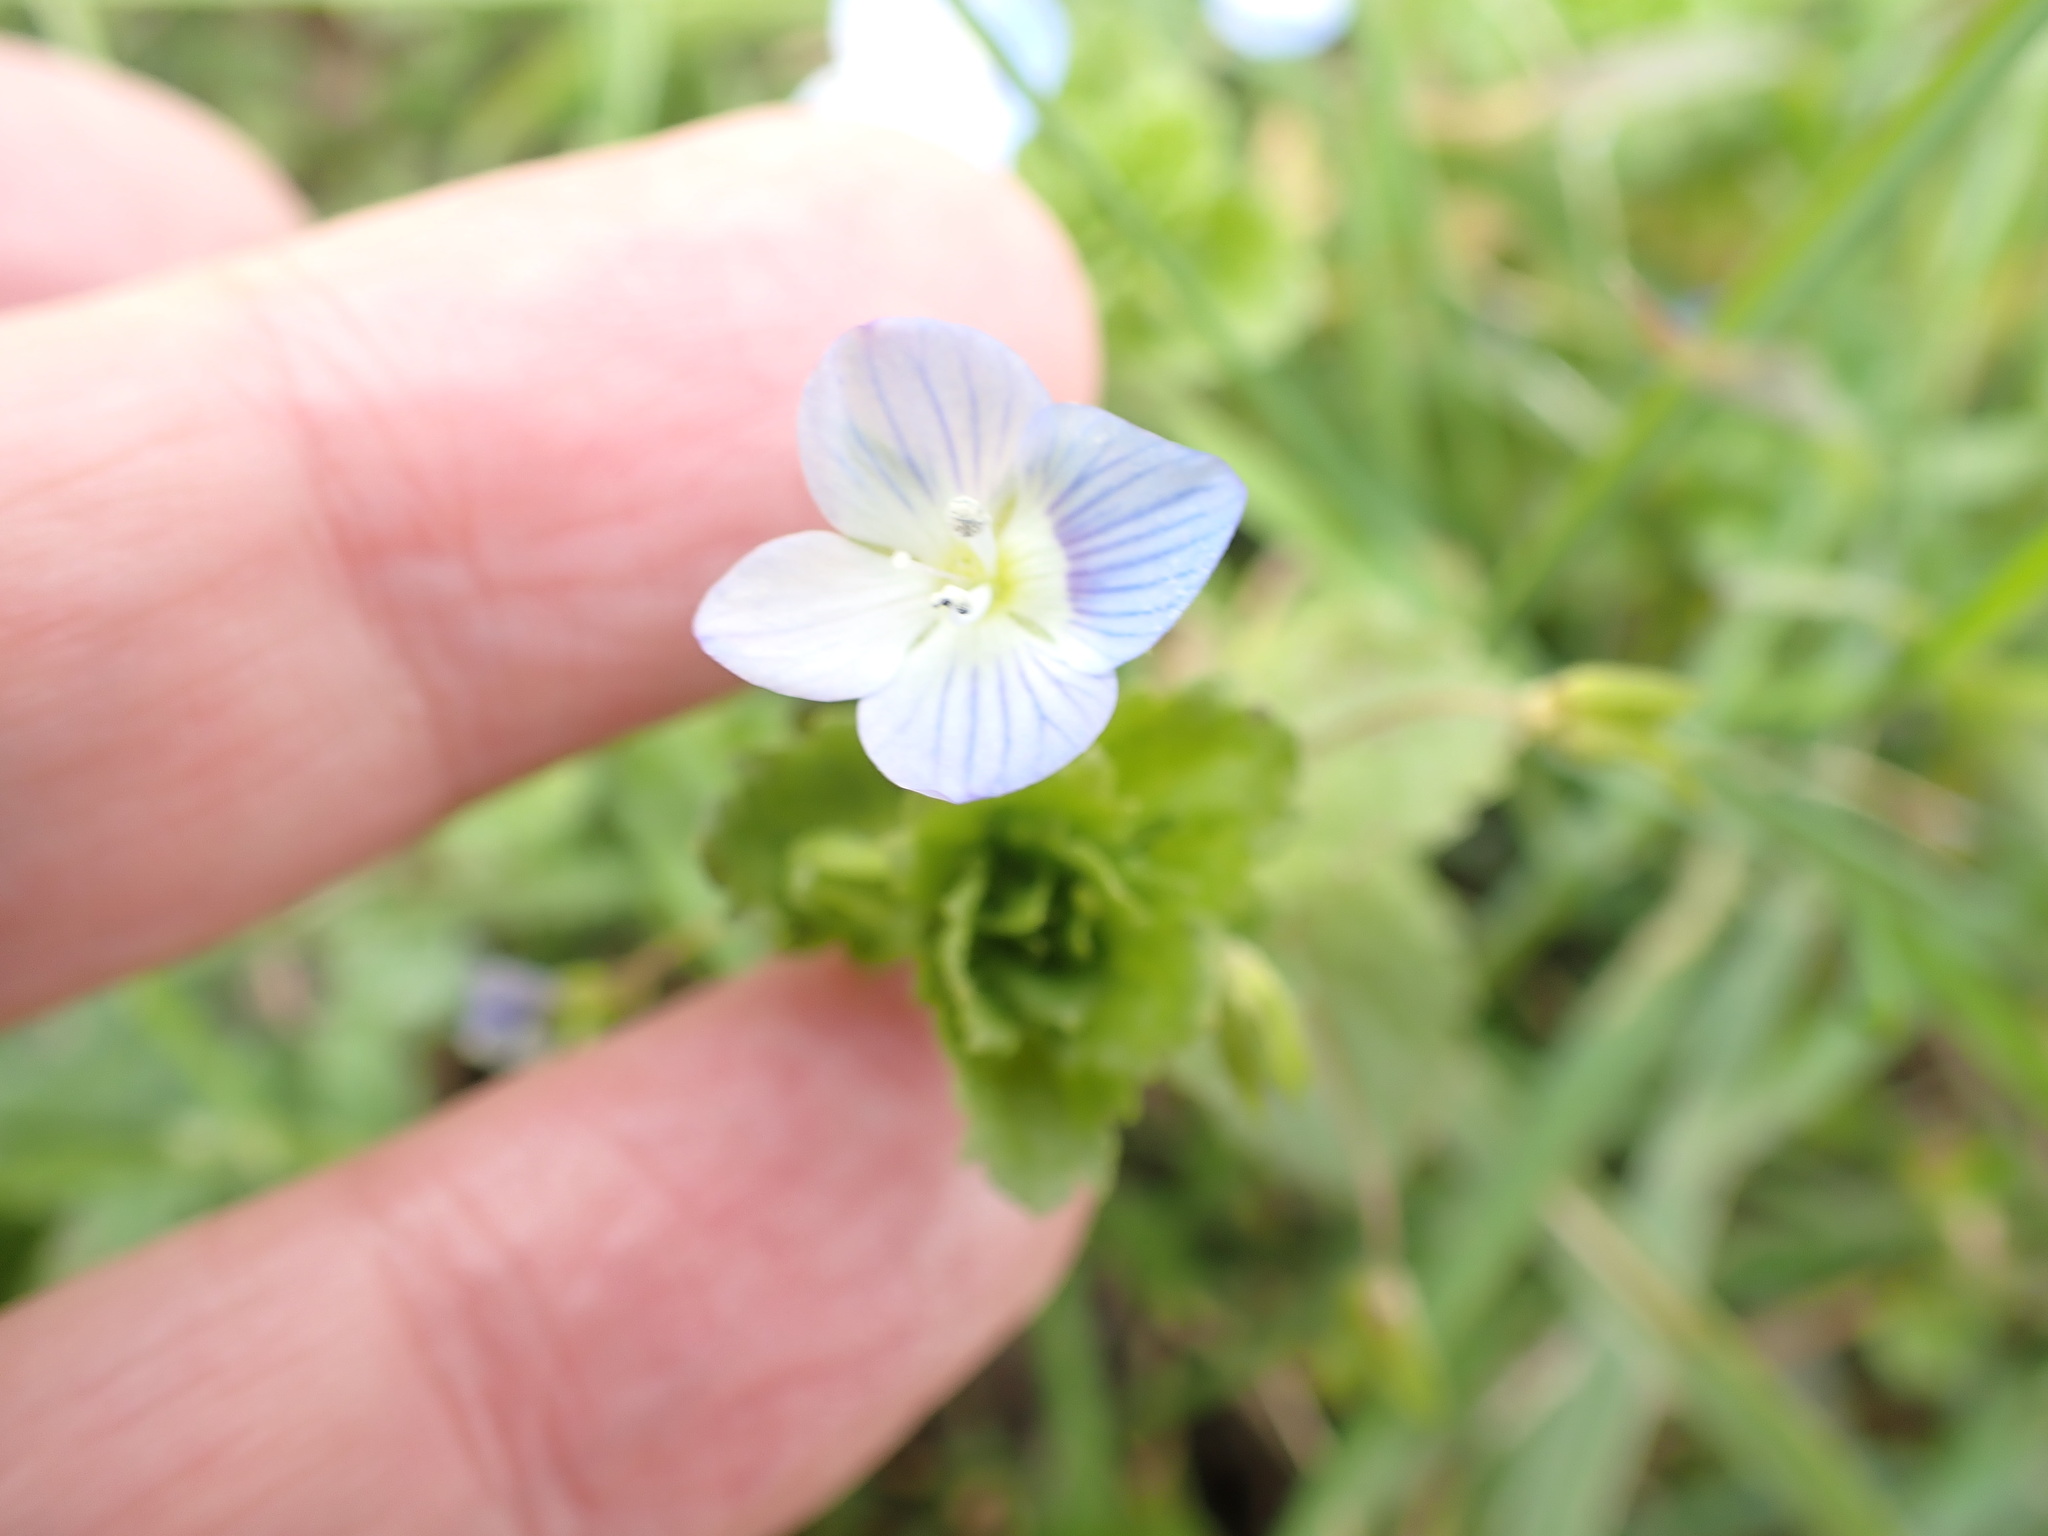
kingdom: Plantae
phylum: Tracheophyta
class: Magnoliopsida
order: Lamiales
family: Plantaginaceae
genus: Veronica
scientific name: Veronica persica
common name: Common field-speedwell
